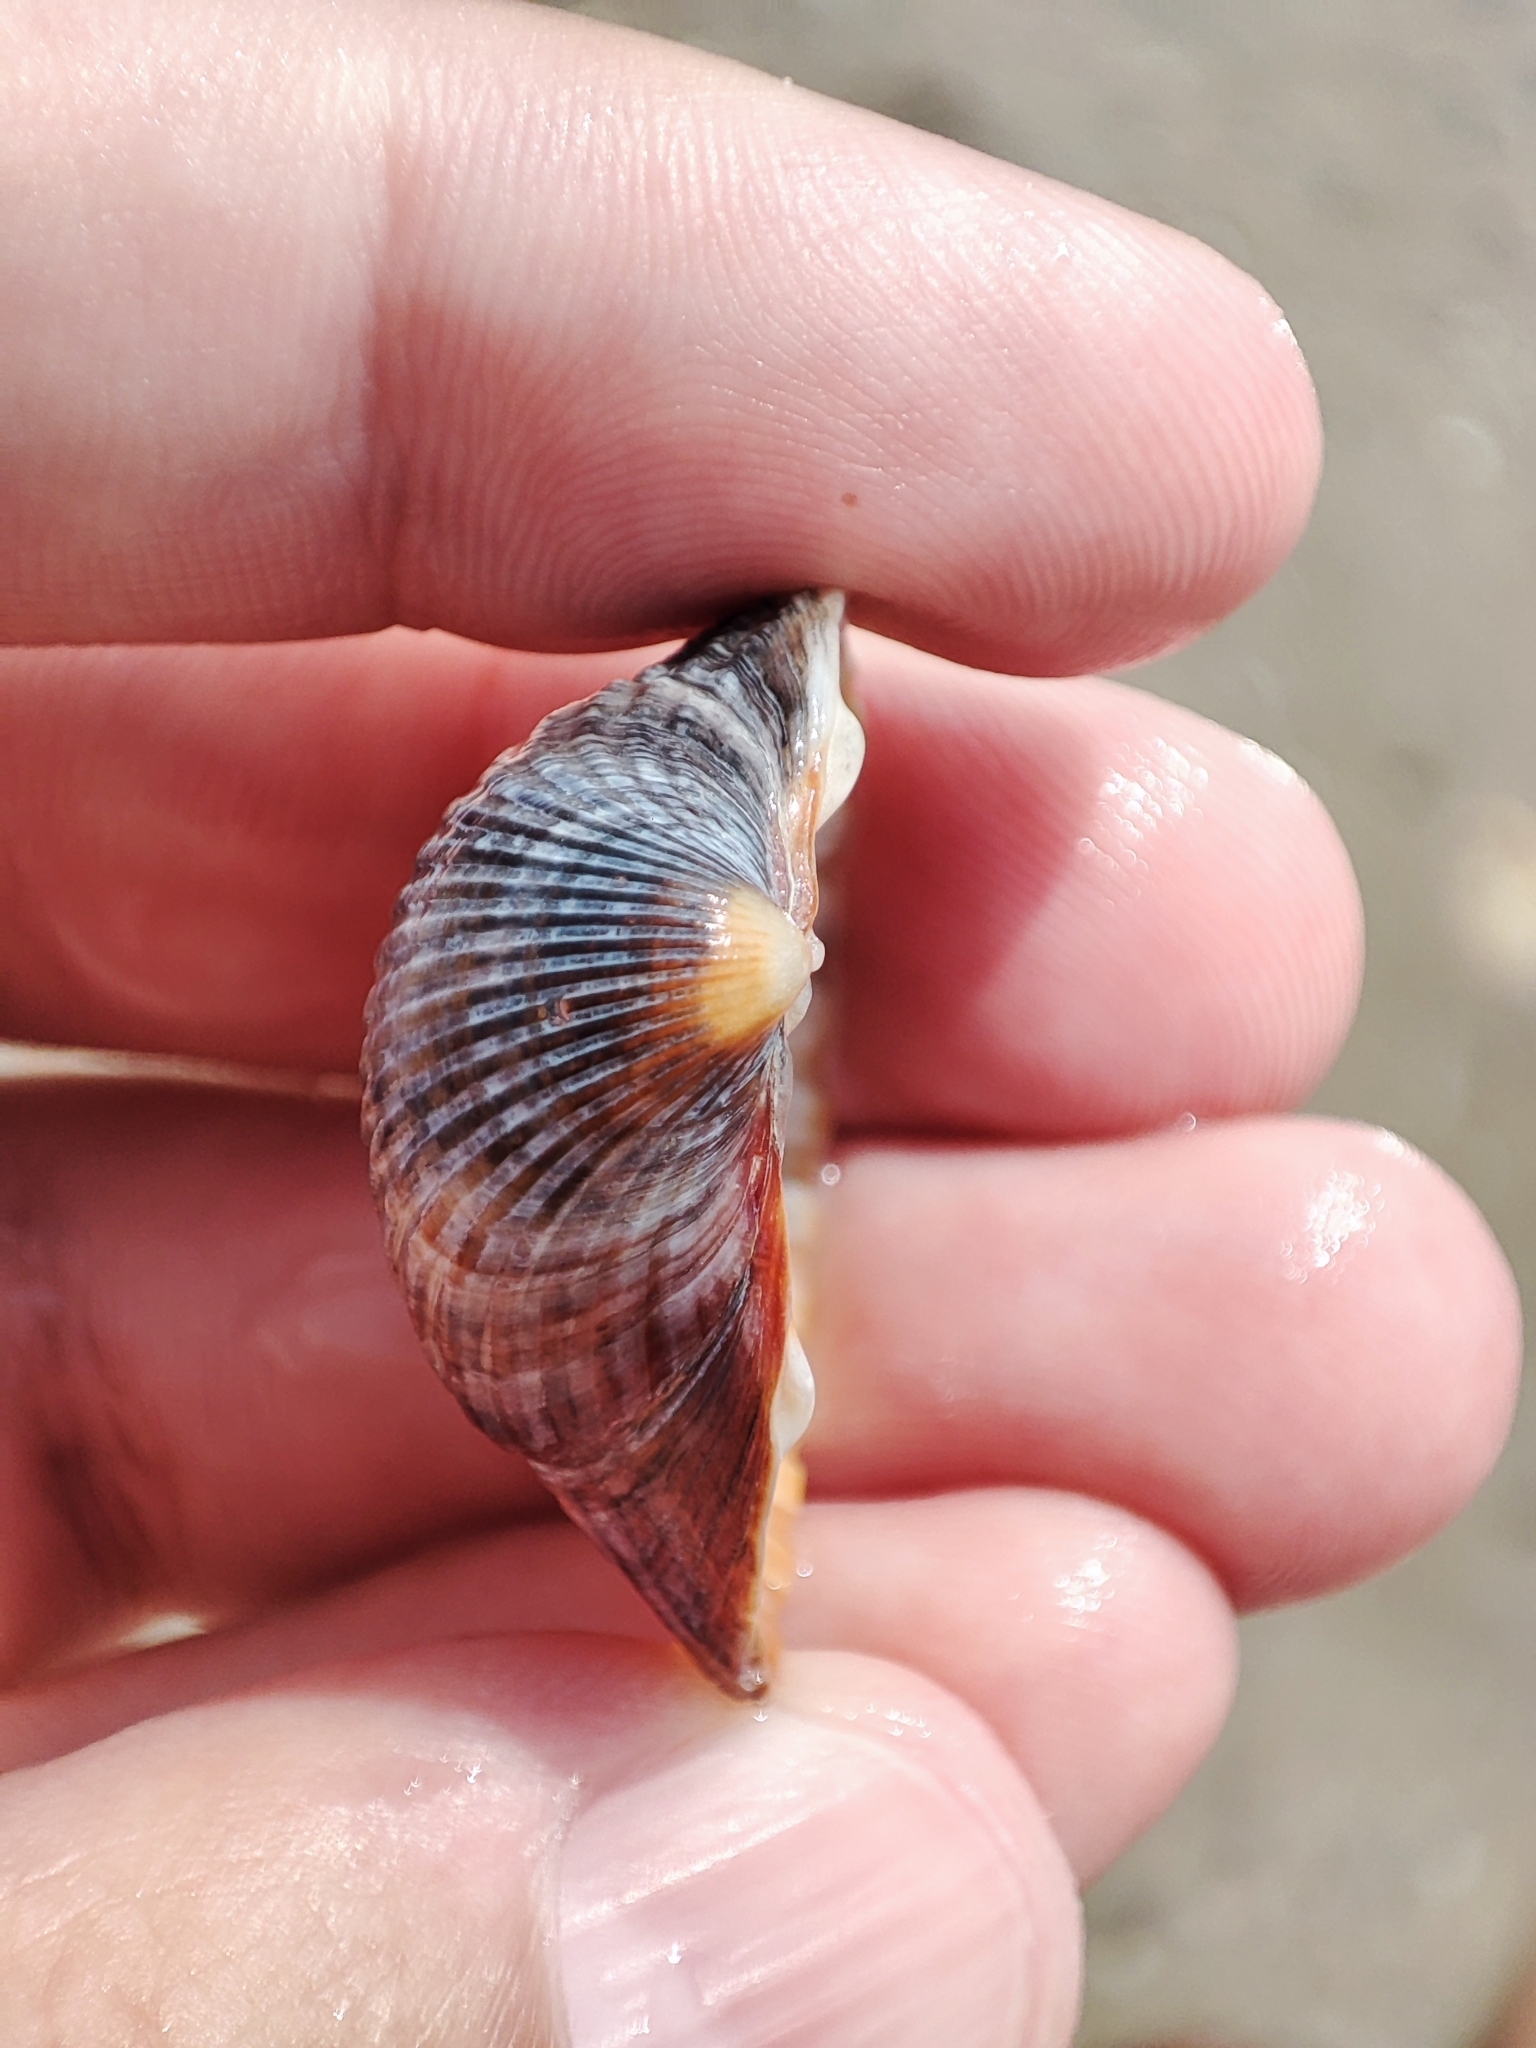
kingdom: Animalia
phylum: Mollusca
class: Bivalvia
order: Cardiida
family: Cardiidae
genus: Cerastoderma
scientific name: Cerastoderma glaucum
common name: Lagoon cockle
